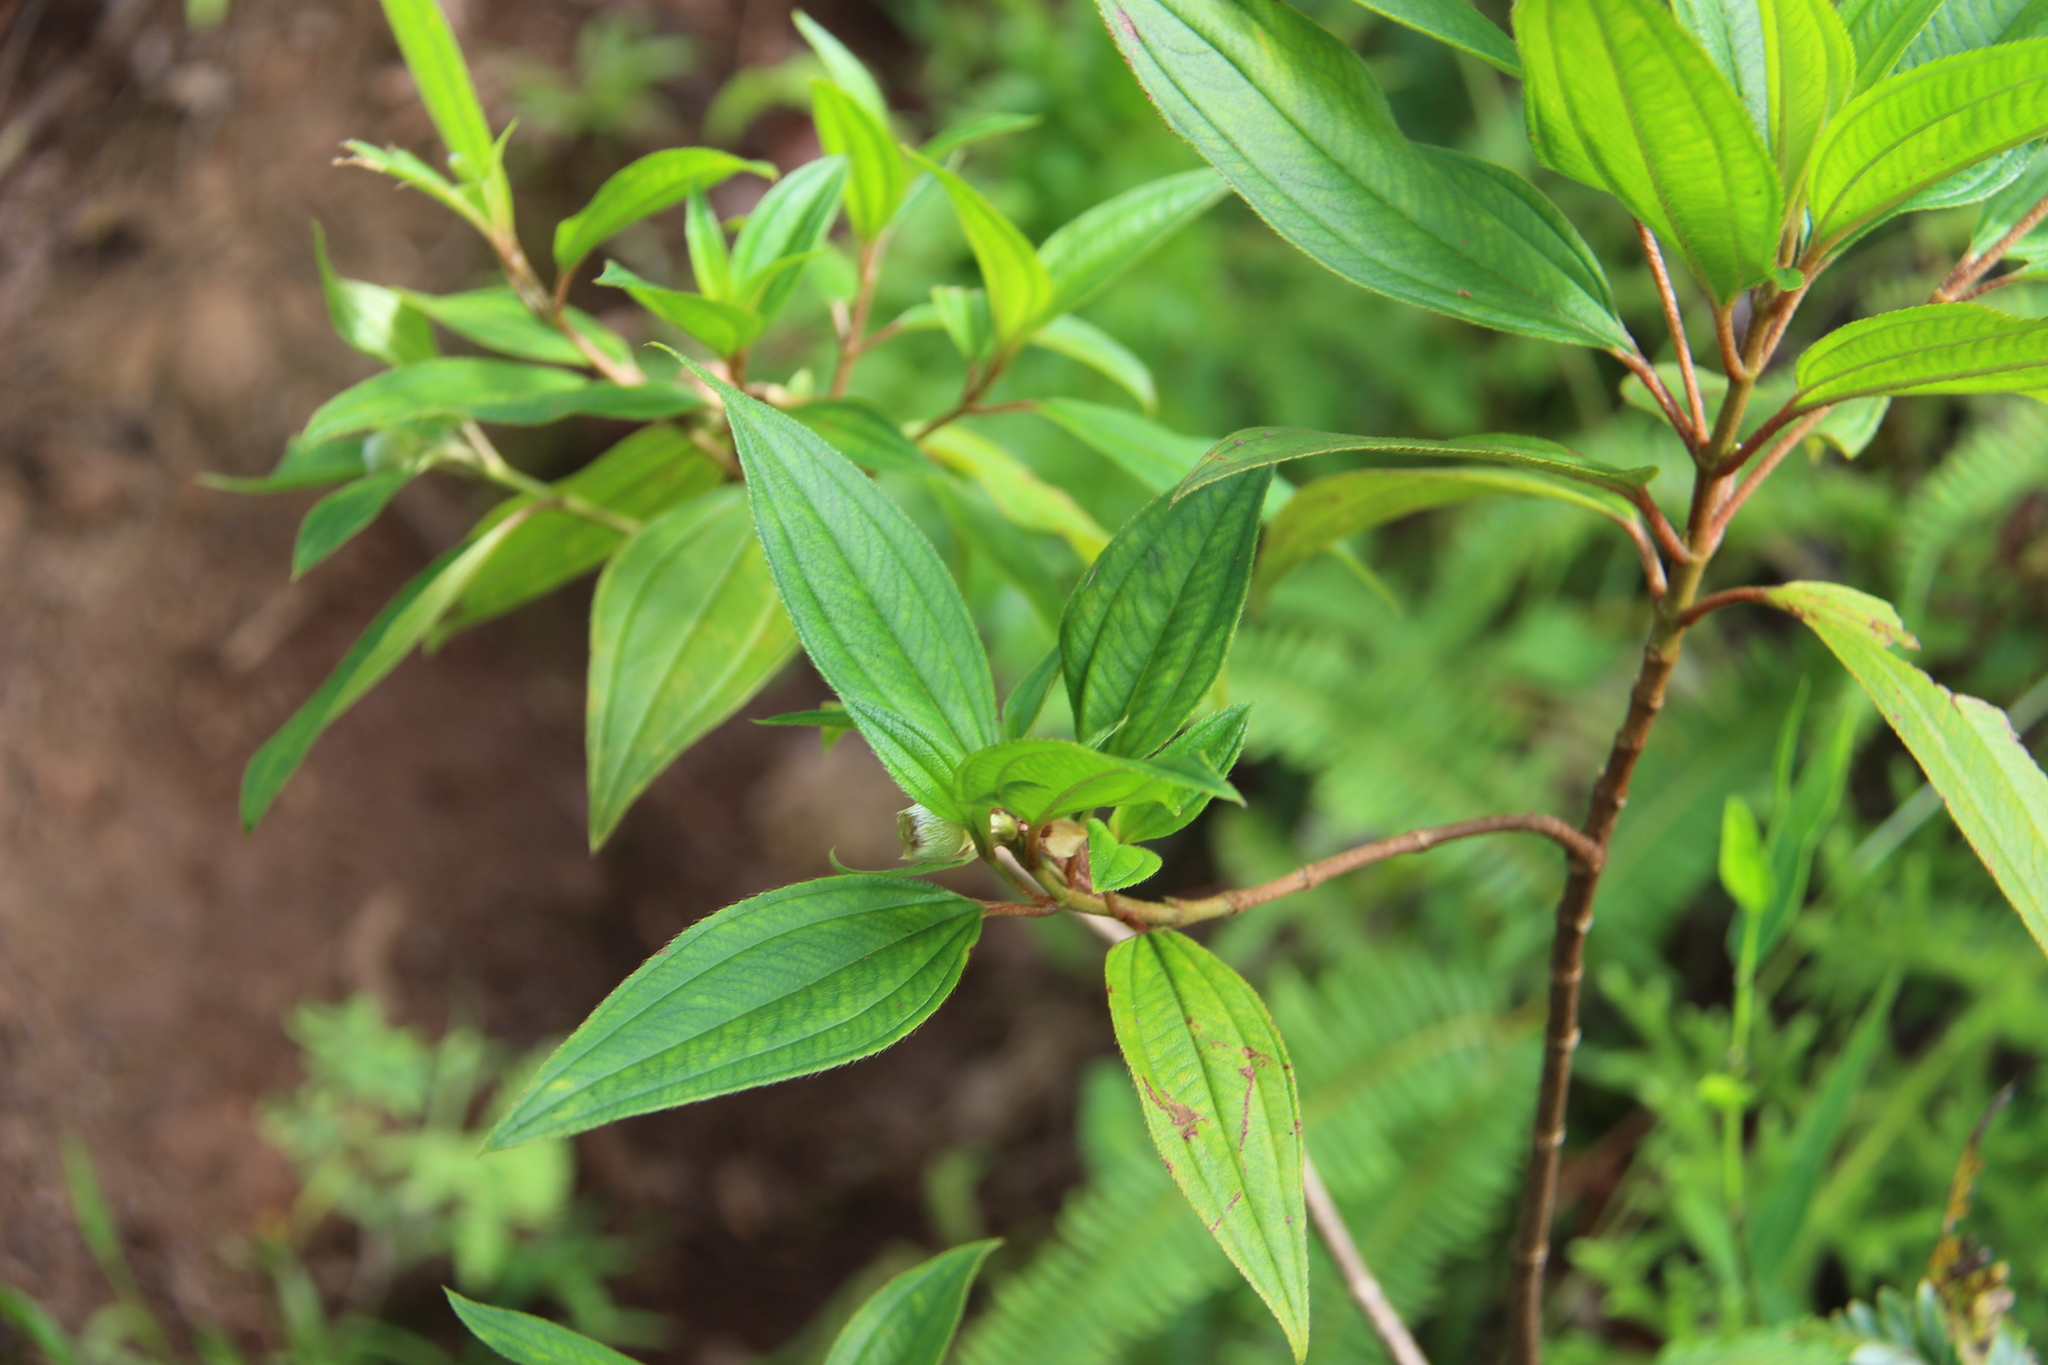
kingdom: Plantae
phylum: Tracheophyta
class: Magnoliopsida
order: Myrtales
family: Melastomataceae
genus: Melastoma
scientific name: Melastoma denticulatum
